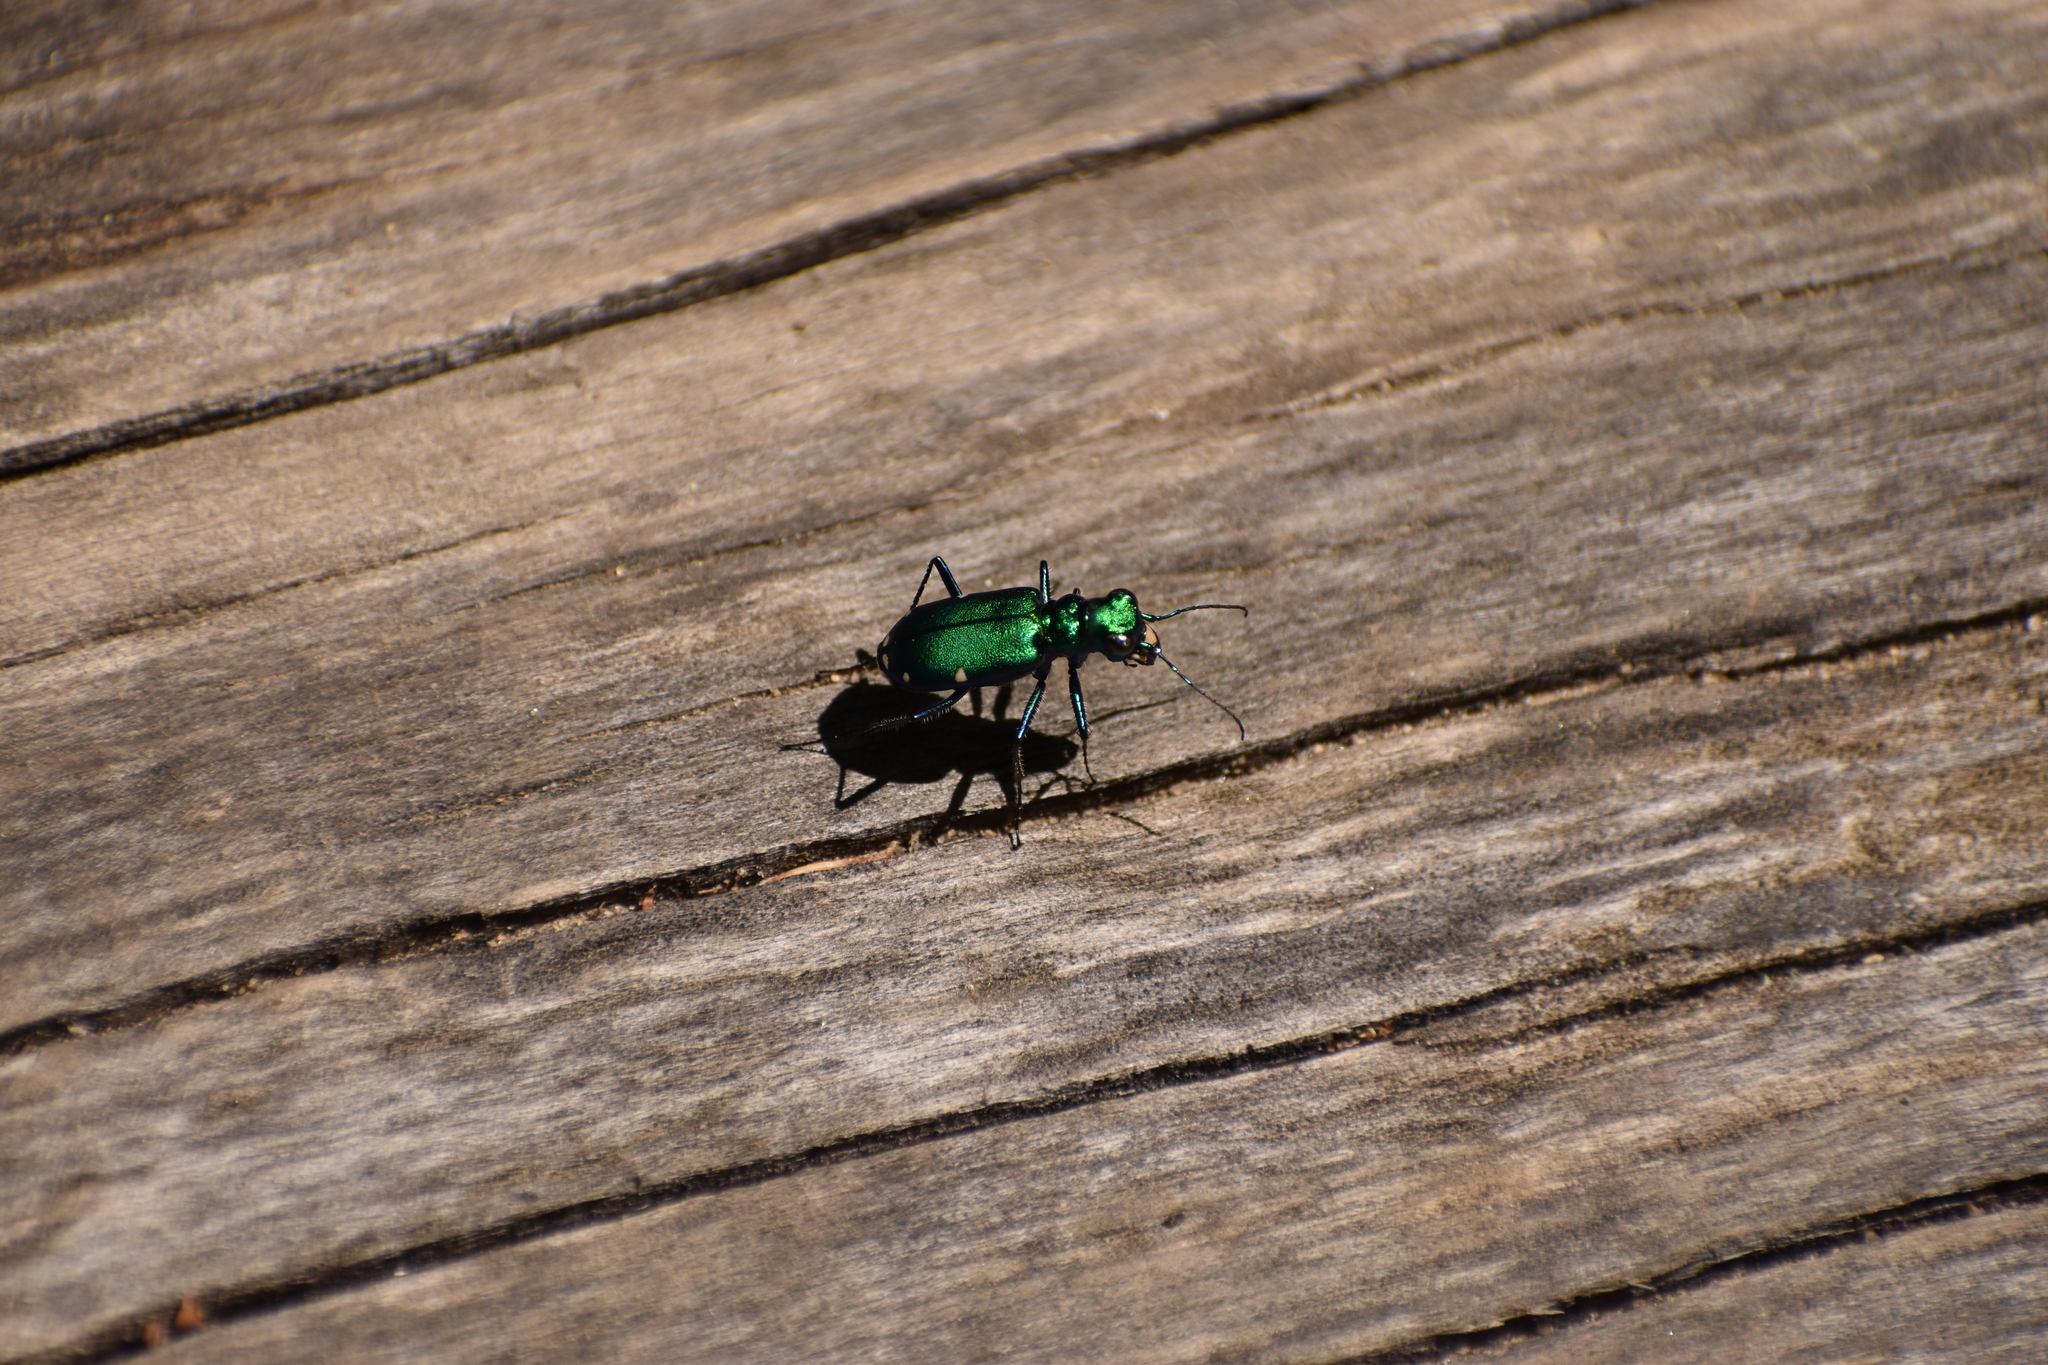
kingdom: Animalia
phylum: Arthropoda
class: Insecta
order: Coleoptera
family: Carabidae
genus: Cicindela
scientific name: Cicindela sexguttata
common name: Six-spotted tiger beetle
